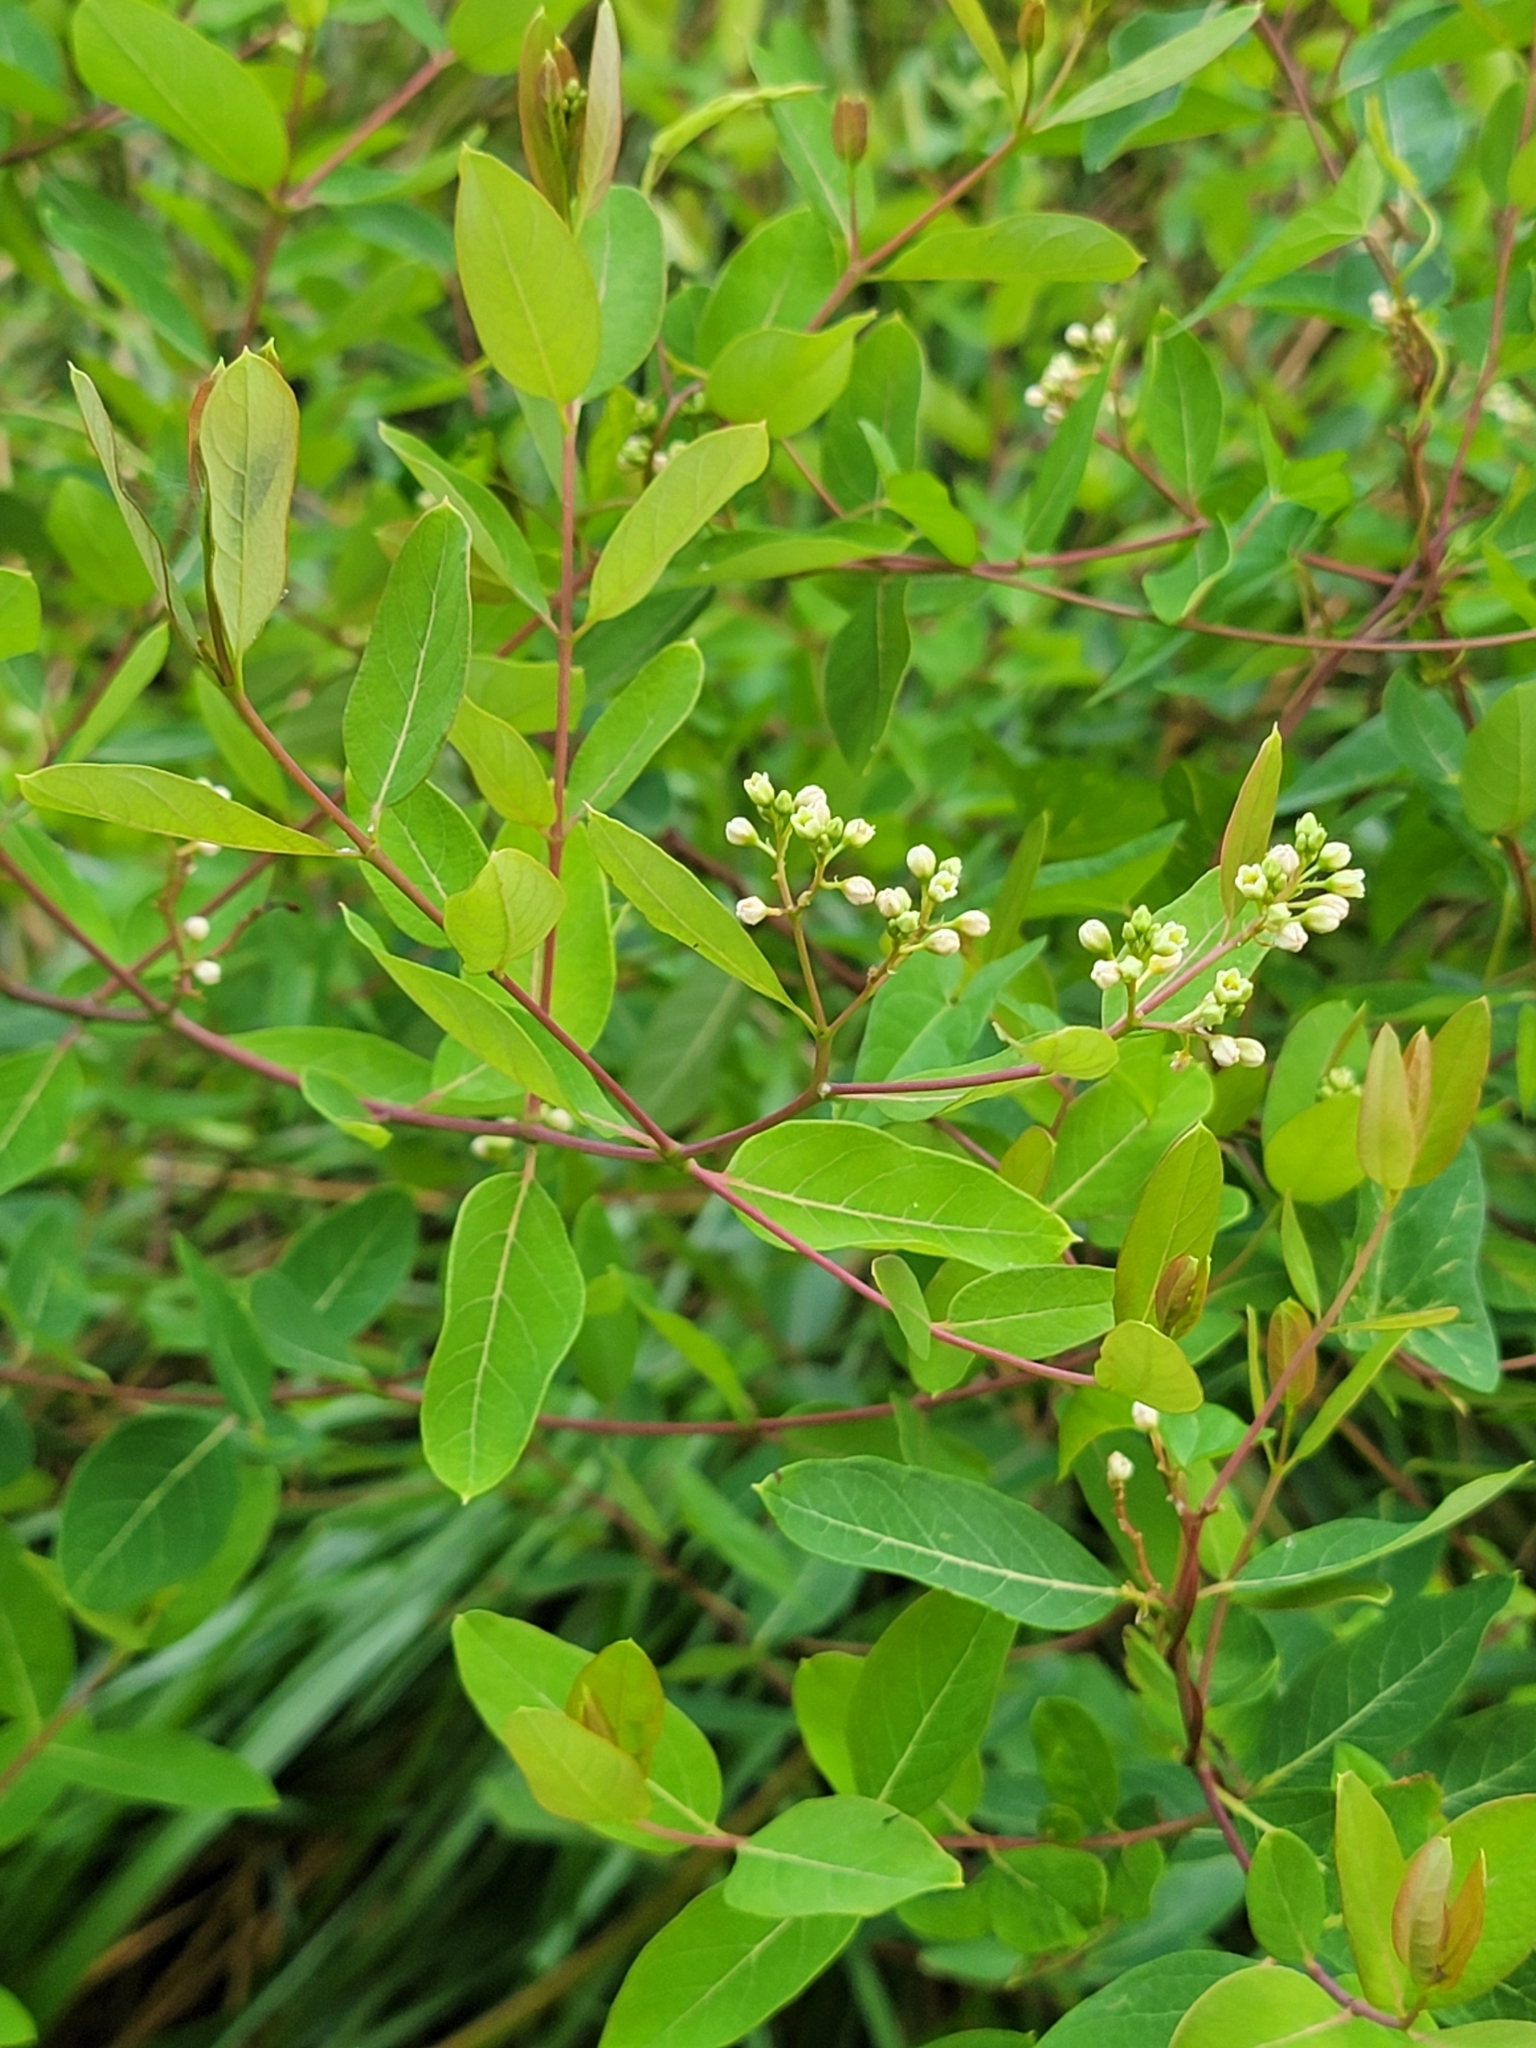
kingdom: Plantae
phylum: Tracheophyta
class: Magnoliopsida
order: Gentianales
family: Apocynaceae
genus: Apocynum
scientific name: Apocynum cannabinum
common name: Hemp dogbane
